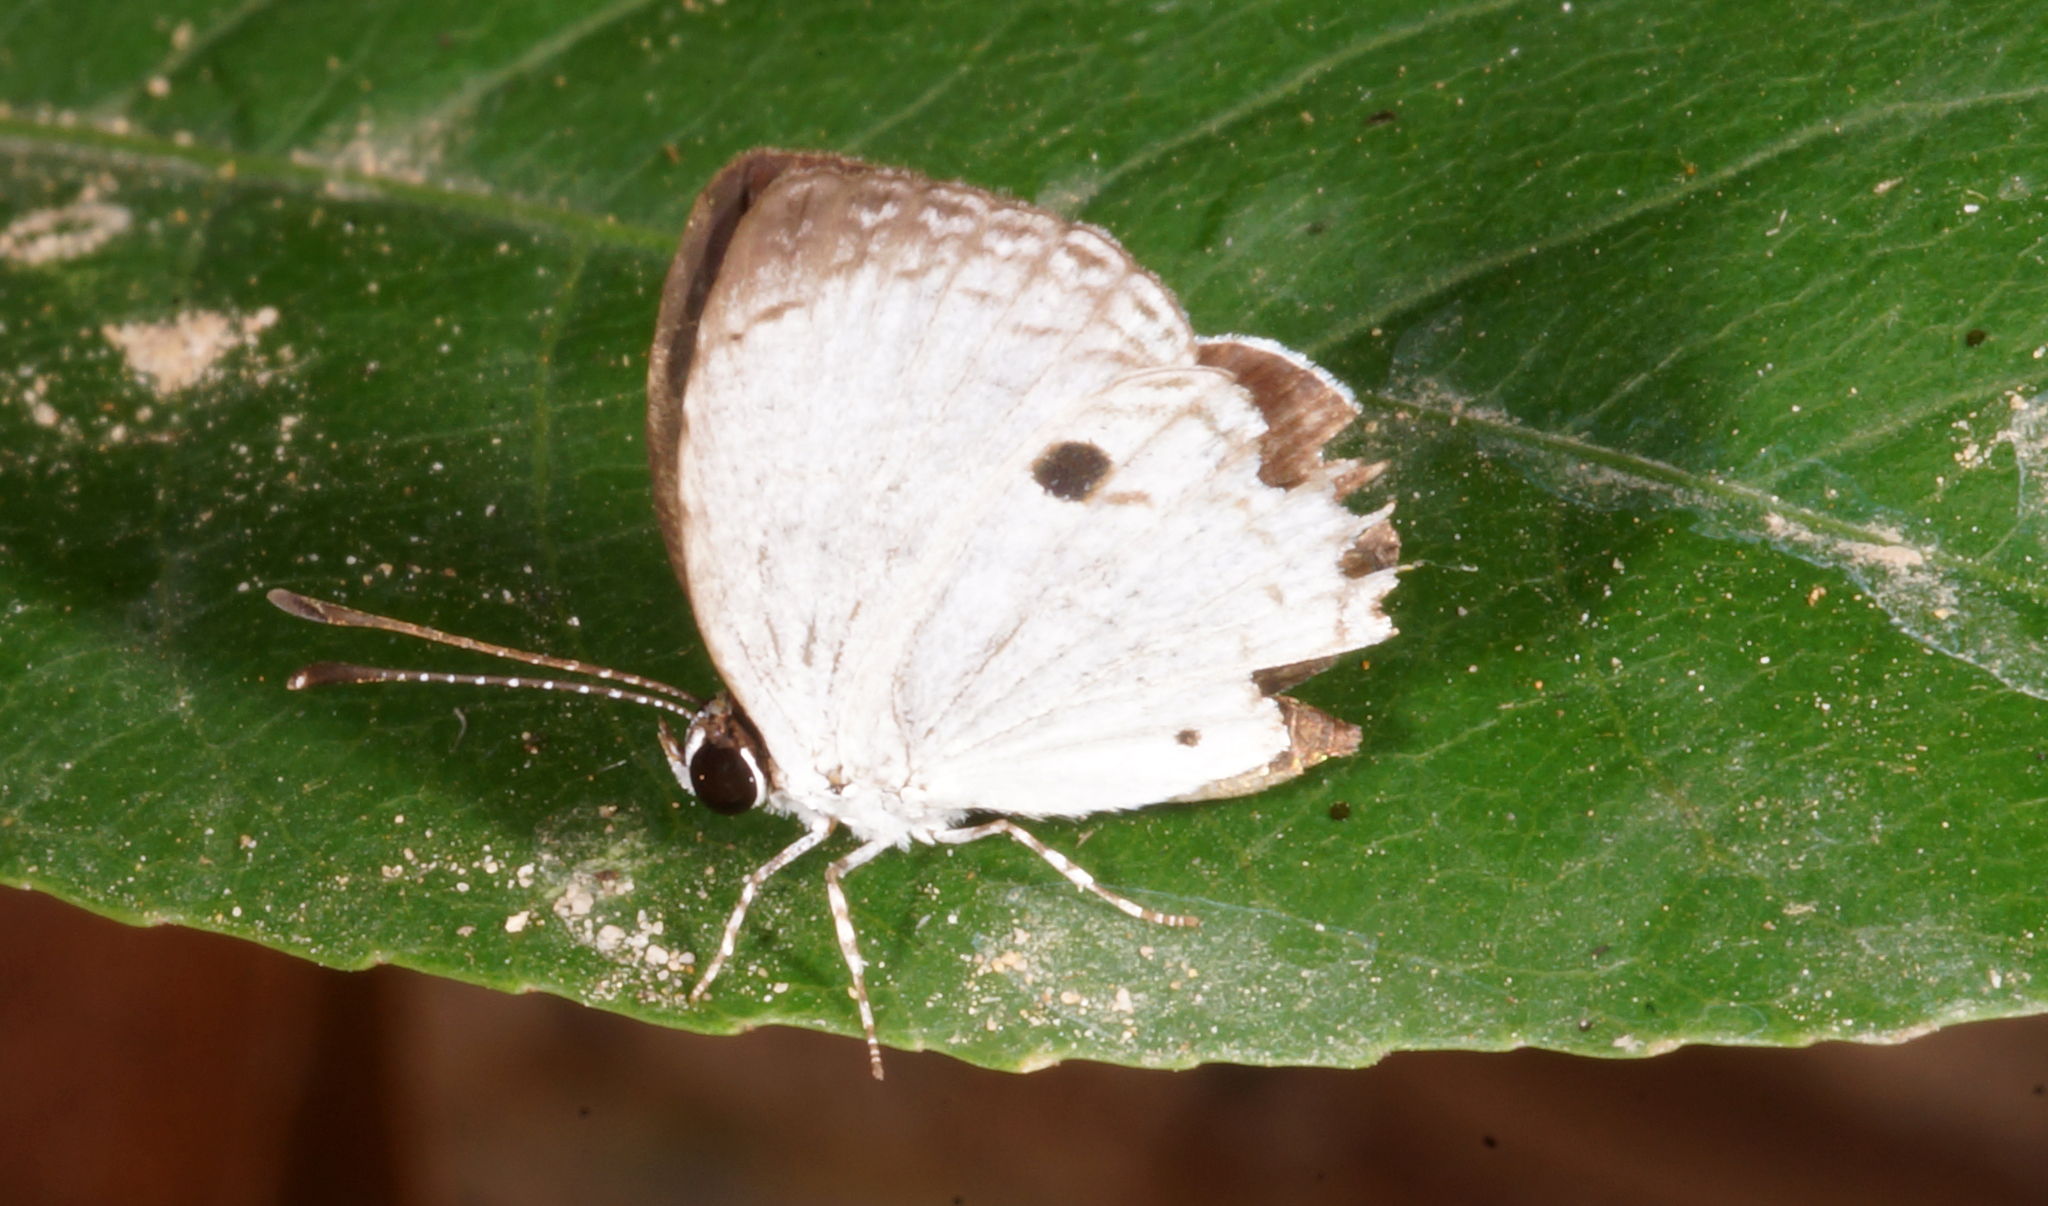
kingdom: Animalia
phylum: Arthropoda
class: Insecta
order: Lepidoptera
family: Lycaenidae
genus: Neopithecops
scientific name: Neopithecops zalmora
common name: Quaker
